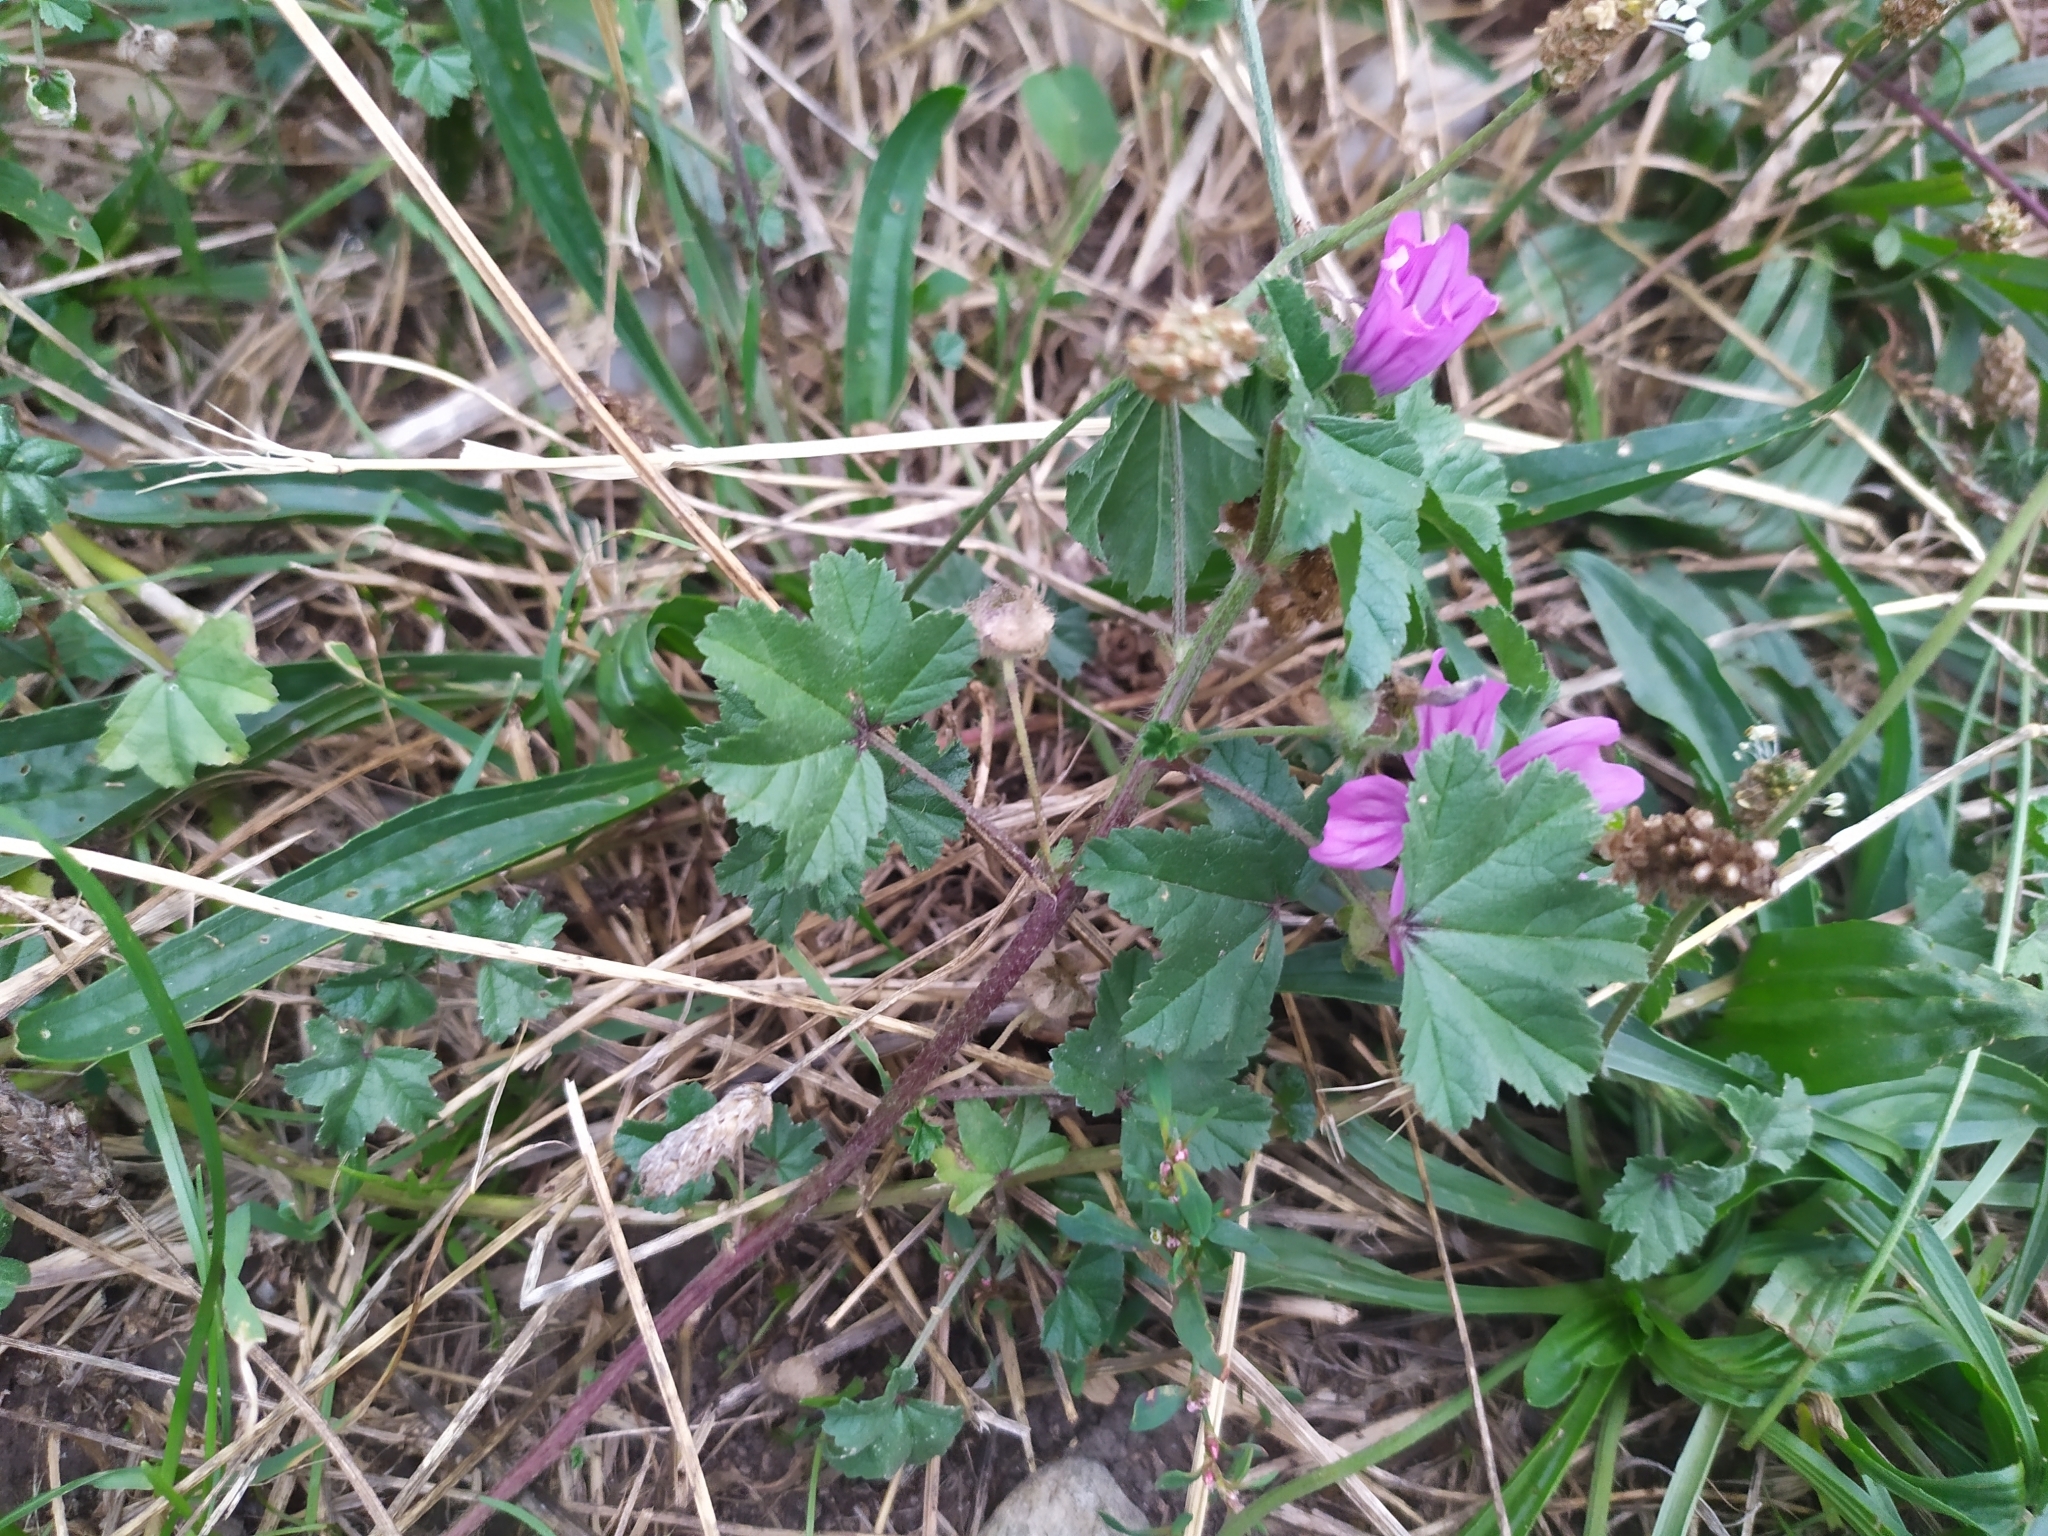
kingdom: Plantae
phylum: Tracheophyta
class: Magnoliopsida
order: Malvales
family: Malvaceae
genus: Malva
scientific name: Malva sylvestris
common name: Common mallow
